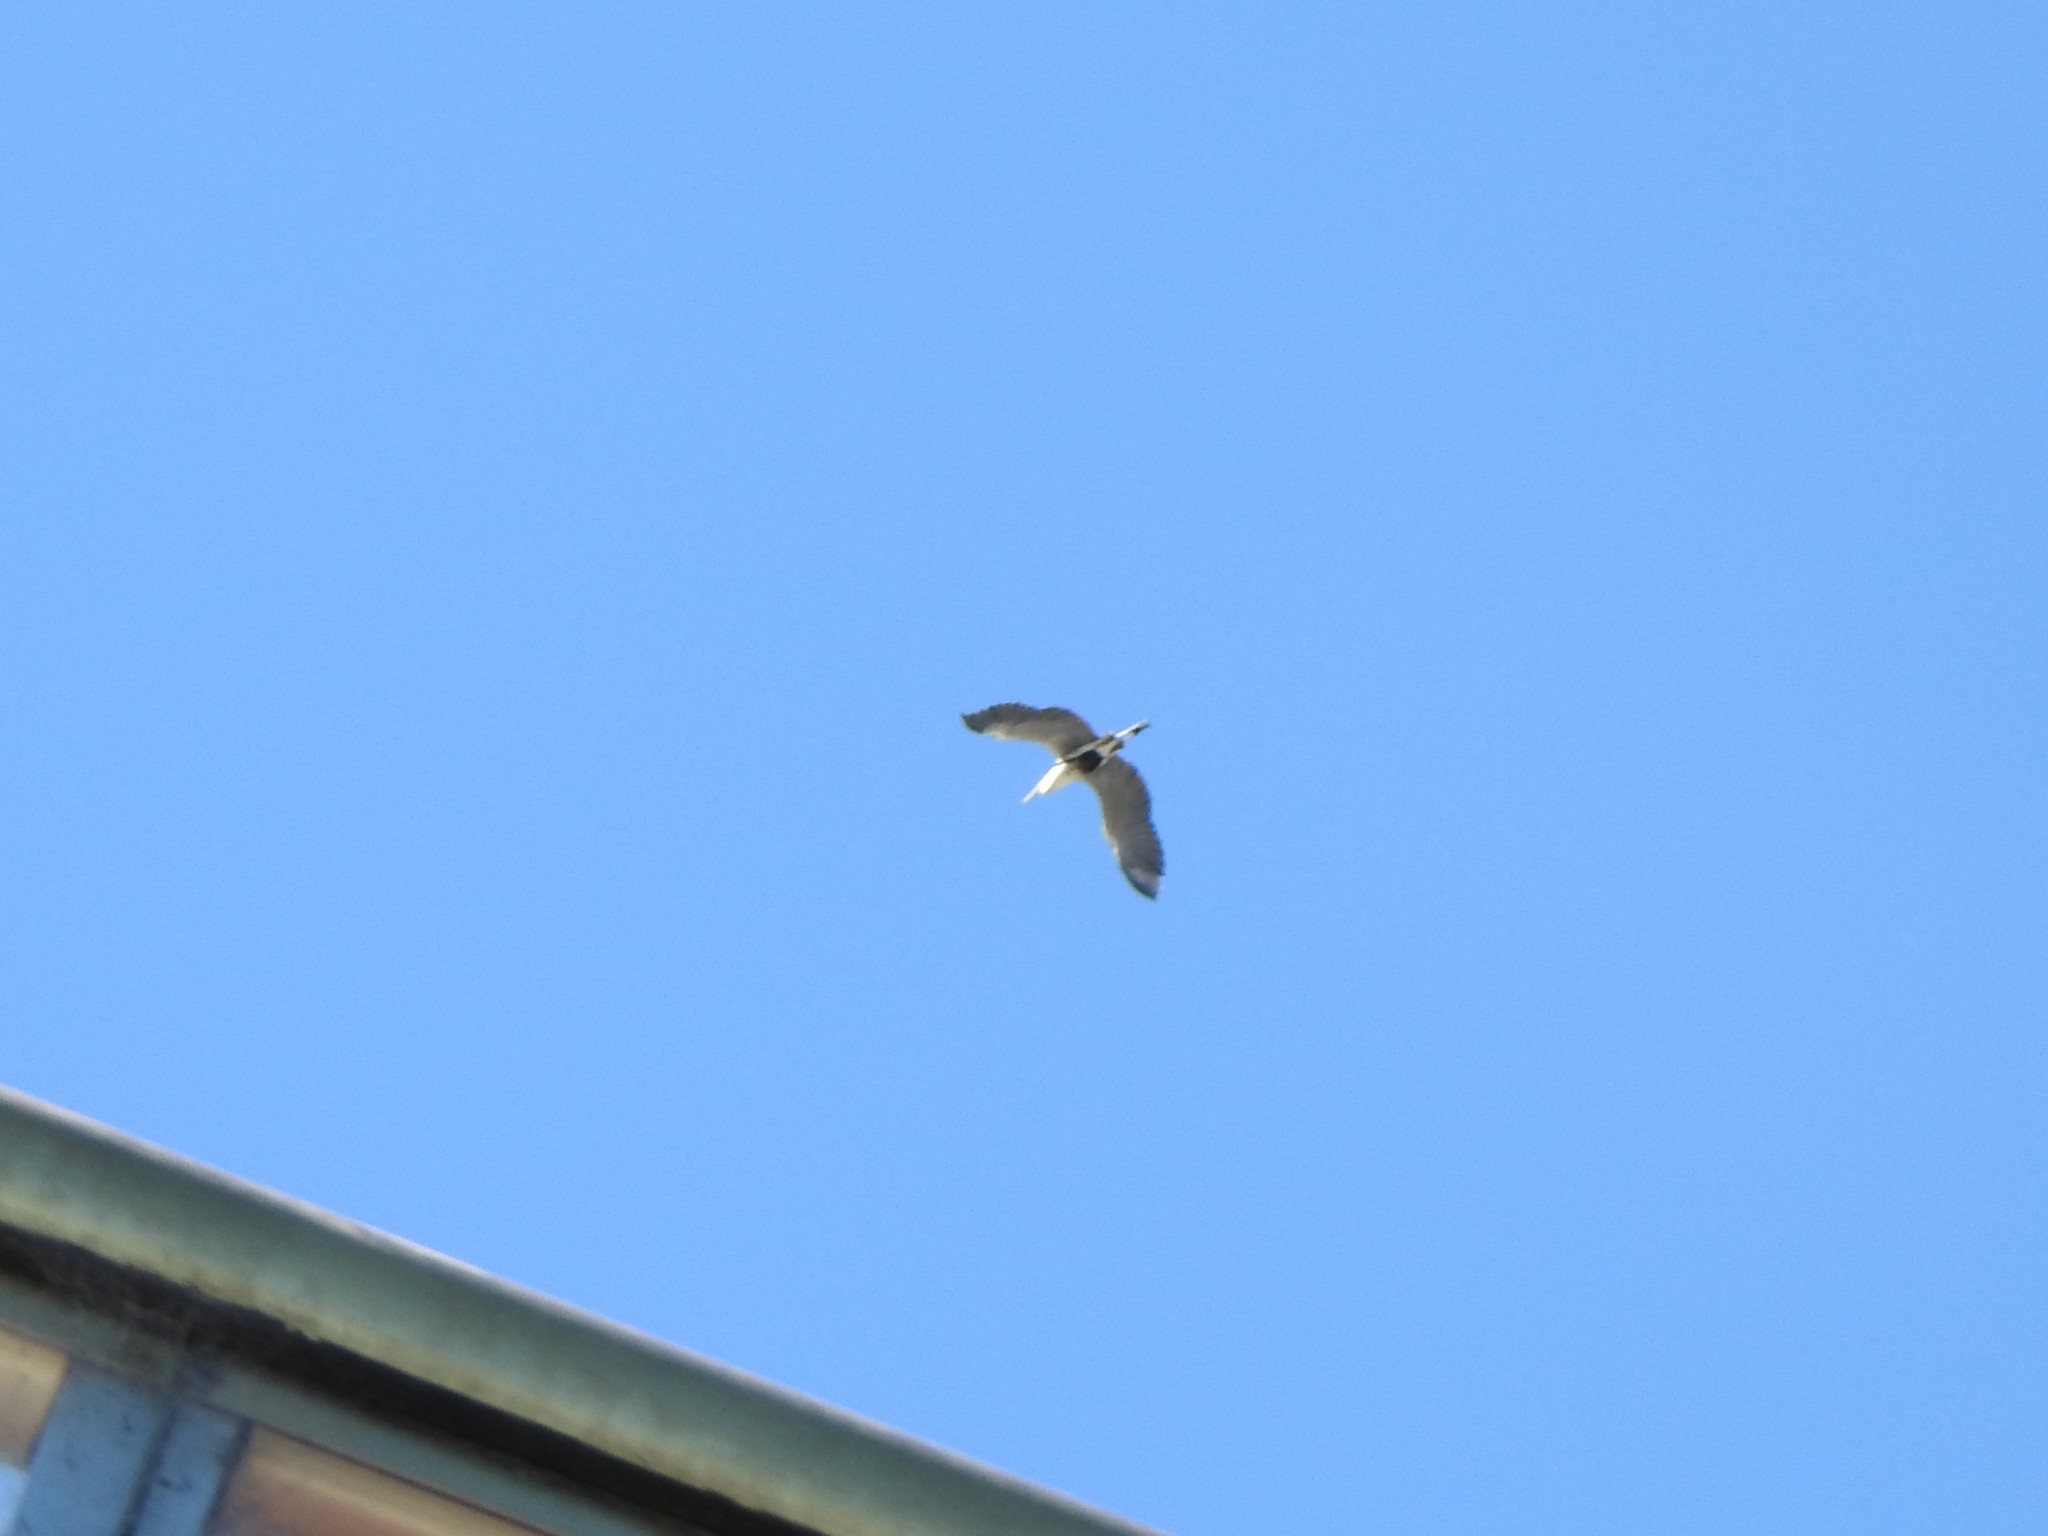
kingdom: Animalia
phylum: Chordata
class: Aves
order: Pelecaniformes
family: Ardeidae
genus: Ardea
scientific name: Ardea cocoi
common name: Cocoi heron
